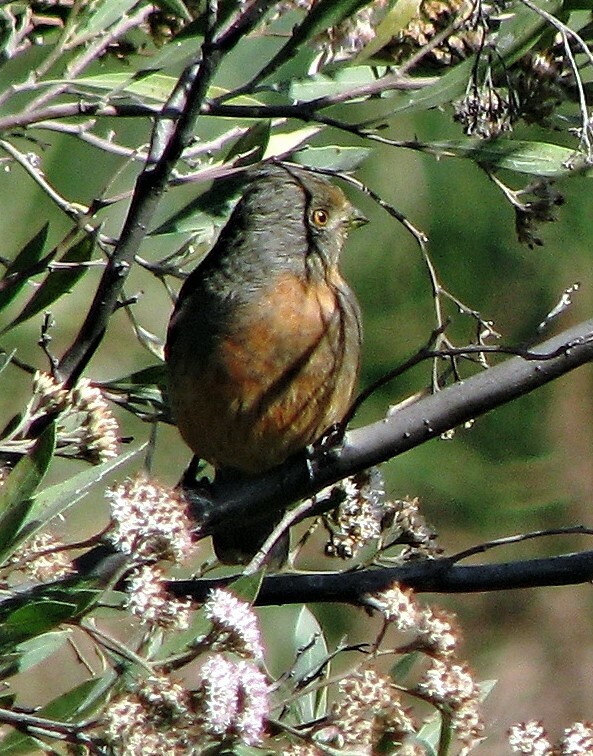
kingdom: Animalia
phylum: Chordata
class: Aves
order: Passeriformes
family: Cotingidae
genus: Phytotoma
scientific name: Phytotoma rutila
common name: White-tipped plantcutter
